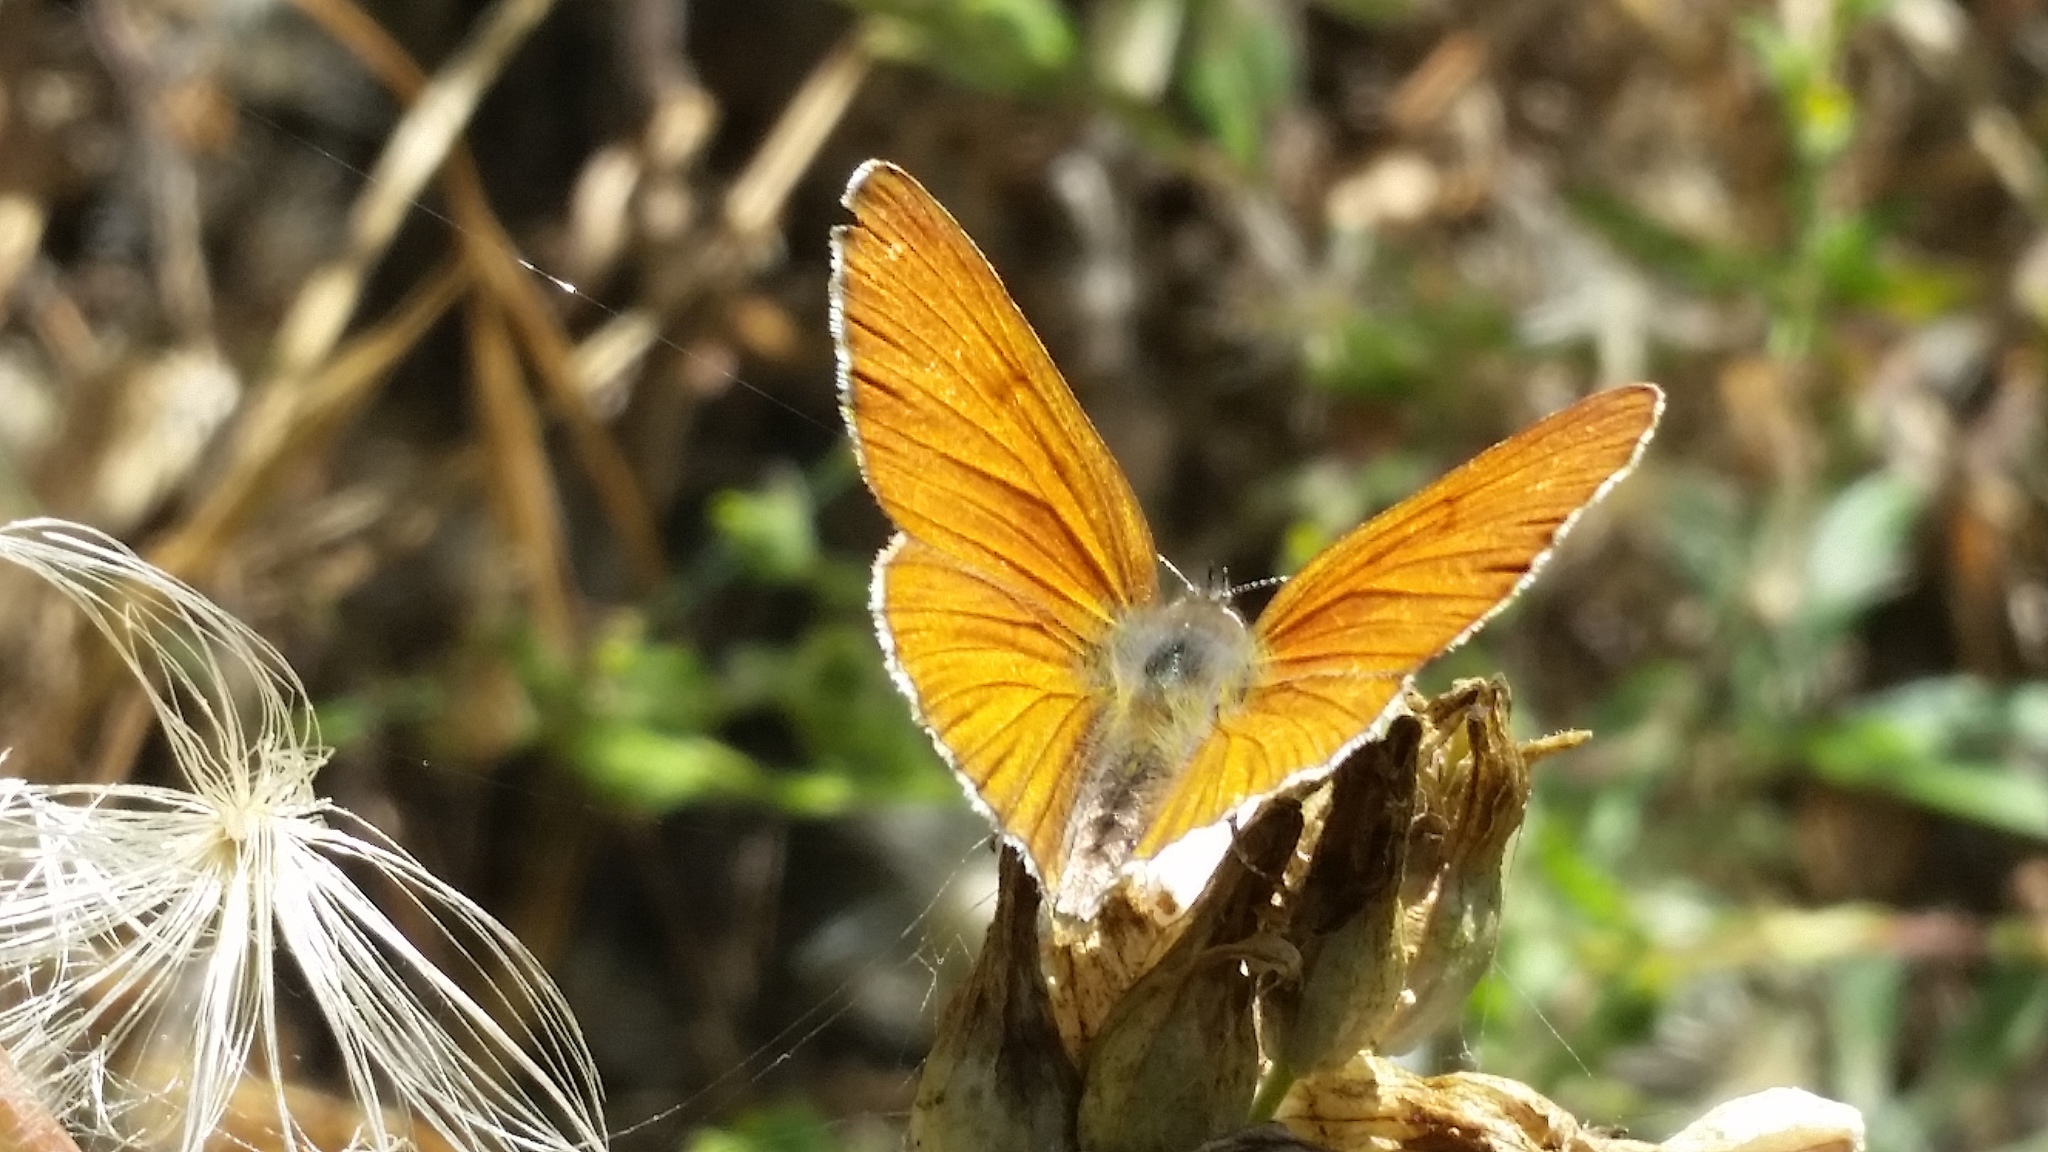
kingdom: Animalia
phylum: Arthropoda
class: Insecta
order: Lepidoptera
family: Lycaenidae
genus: Tharsalea
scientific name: Tharsalea gorgon
